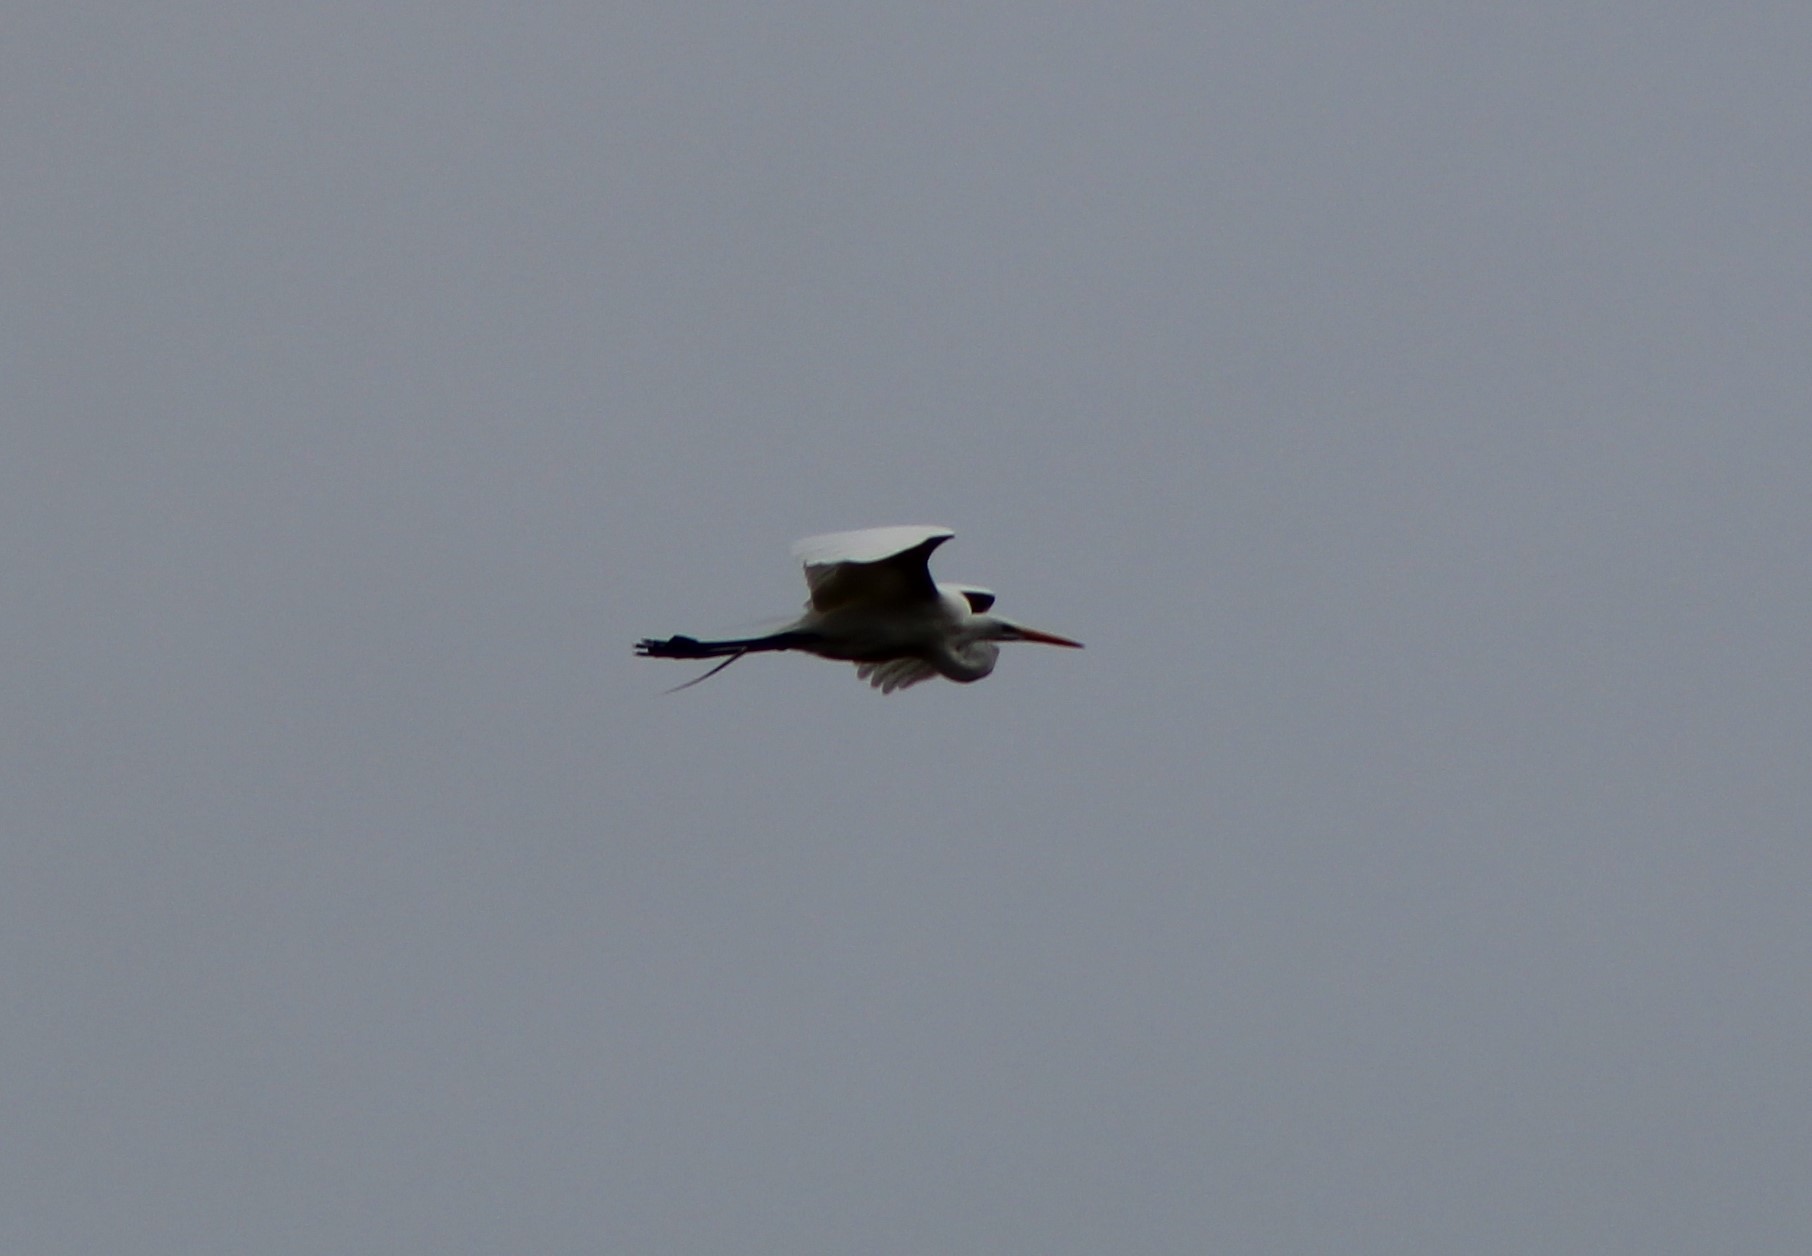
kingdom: Animalia
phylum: Chordata
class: Aves
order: Pelecaniformes
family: Ardeidae
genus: Ardea
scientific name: Ardea alba
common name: Great egret
